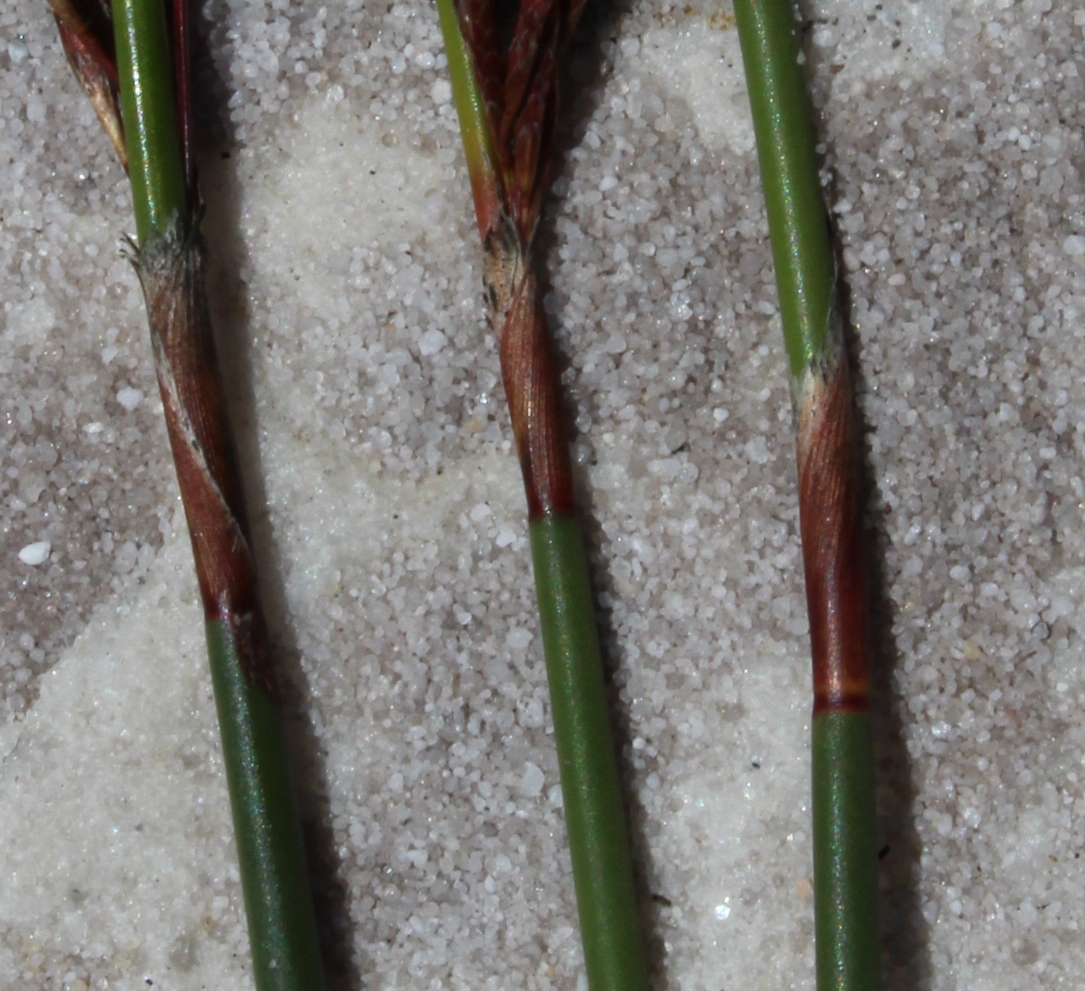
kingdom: Plantae
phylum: Tracheophyta
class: Liliopsida
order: Poales
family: Restionaceae
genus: Thamnochortus
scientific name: Thamnochortus spicigerus
